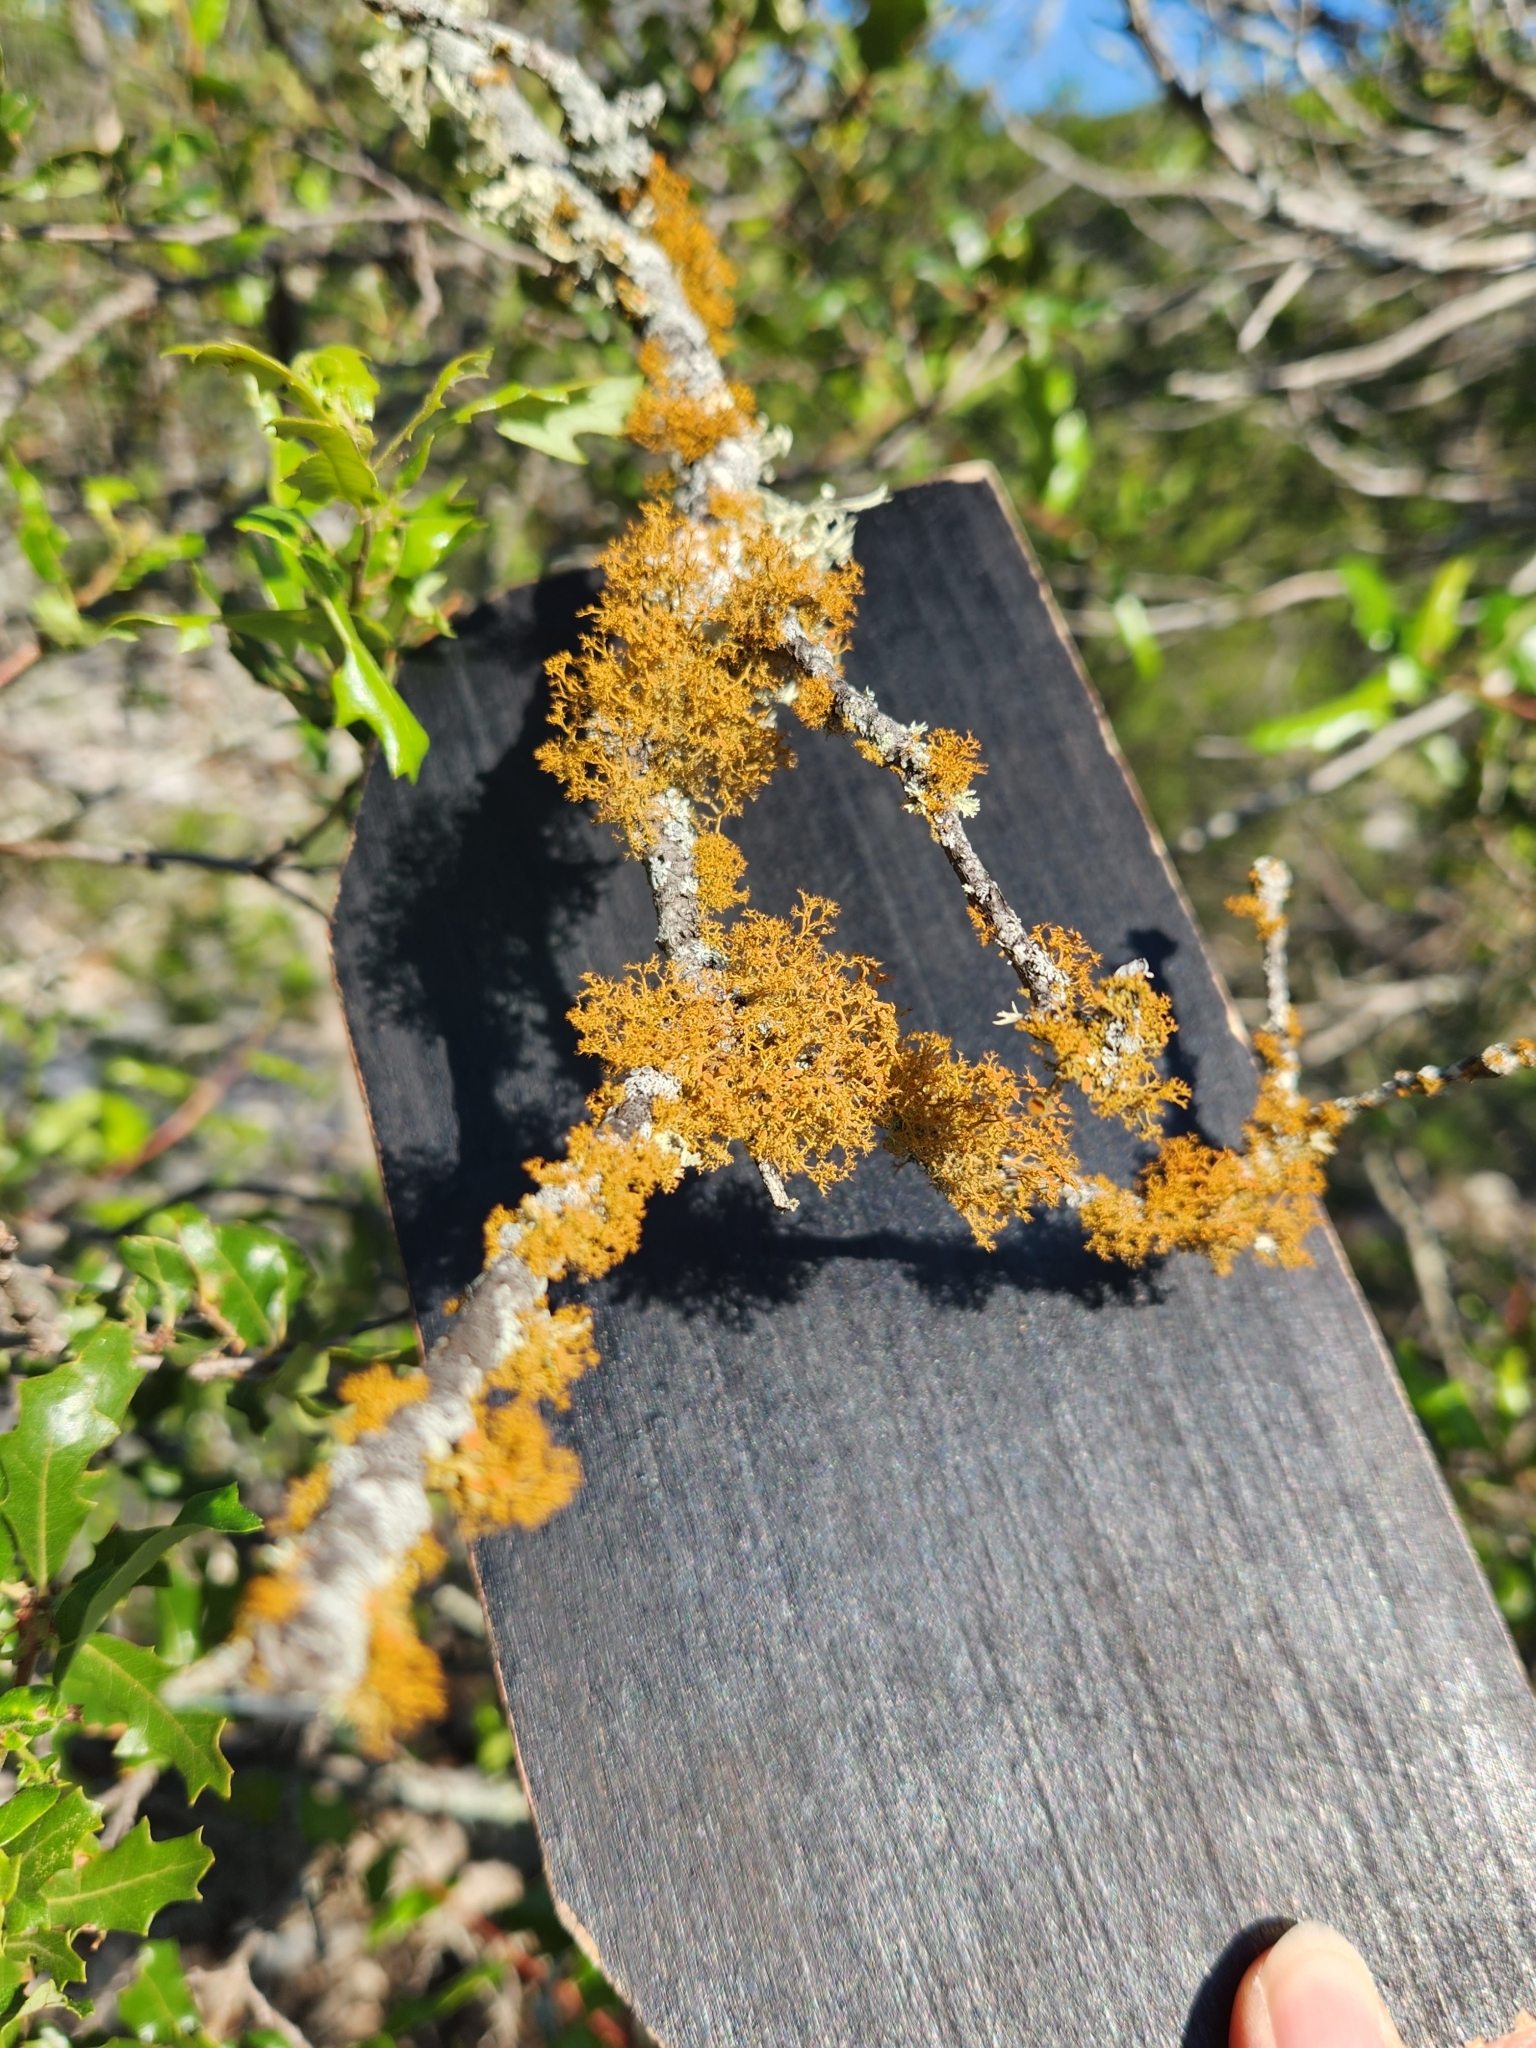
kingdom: Fungi
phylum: Ascomycota
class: Lecanoromycetes
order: Teloschistales
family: Teloschistaceae
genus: Teloschistes
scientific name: Teloschistes exilis
